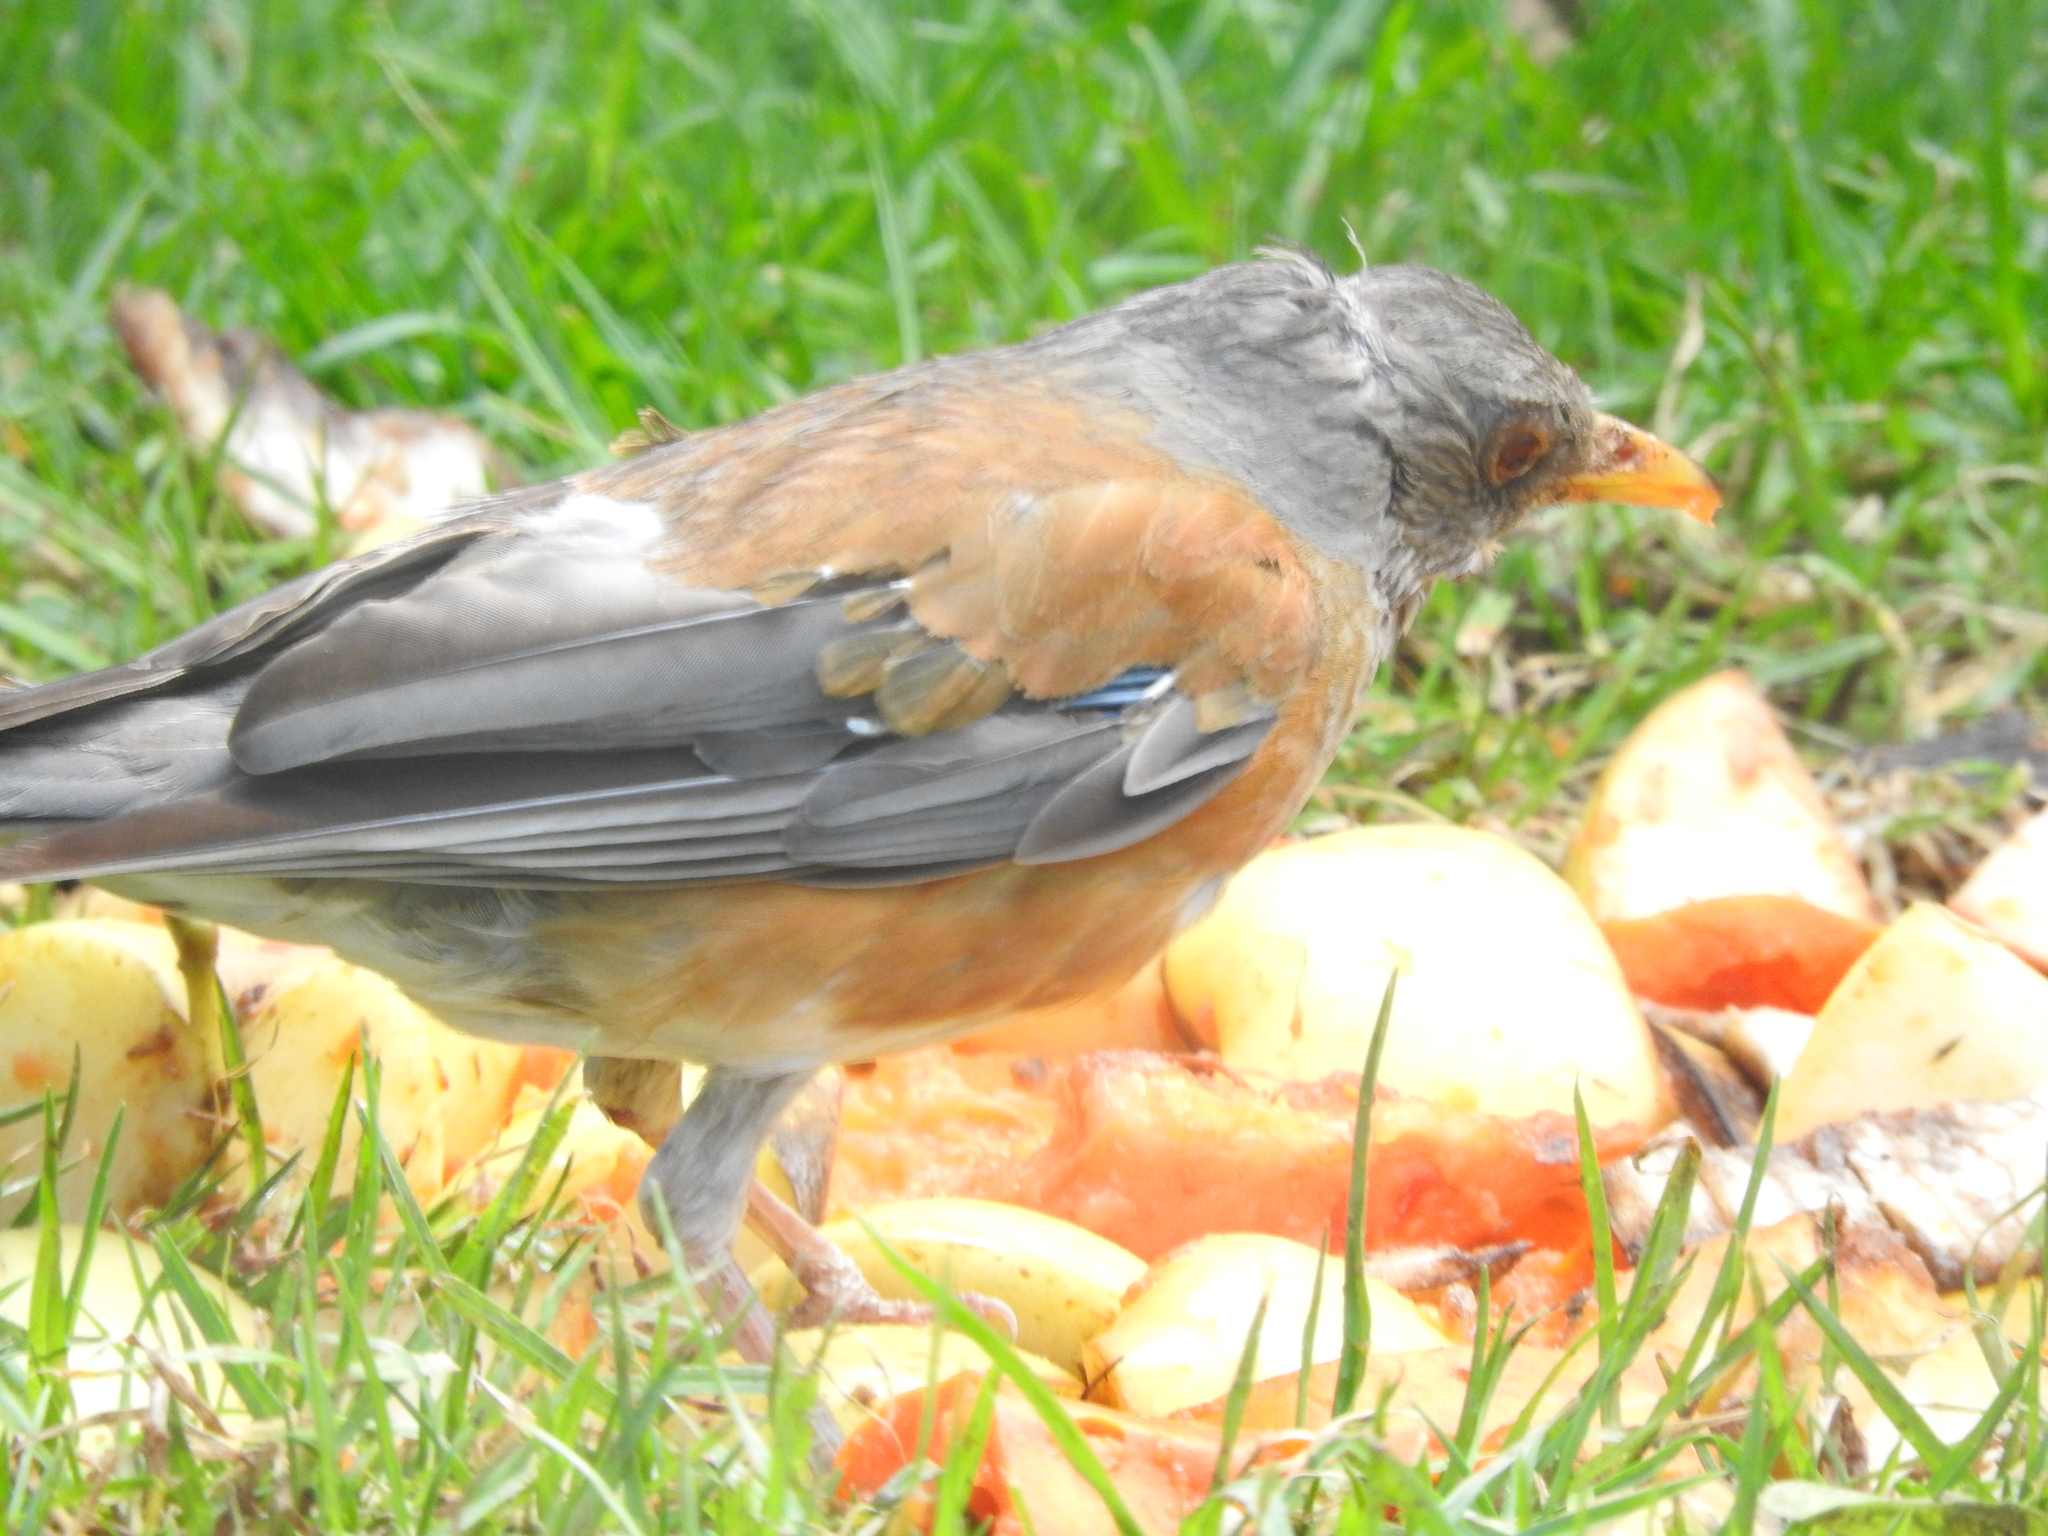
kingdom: Animalia
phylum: Chordata
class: Aves
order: Passeriformes
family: Turdidae
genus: Turdus
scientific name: Turdus rufopalliatus
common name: Rufous-backed robin
